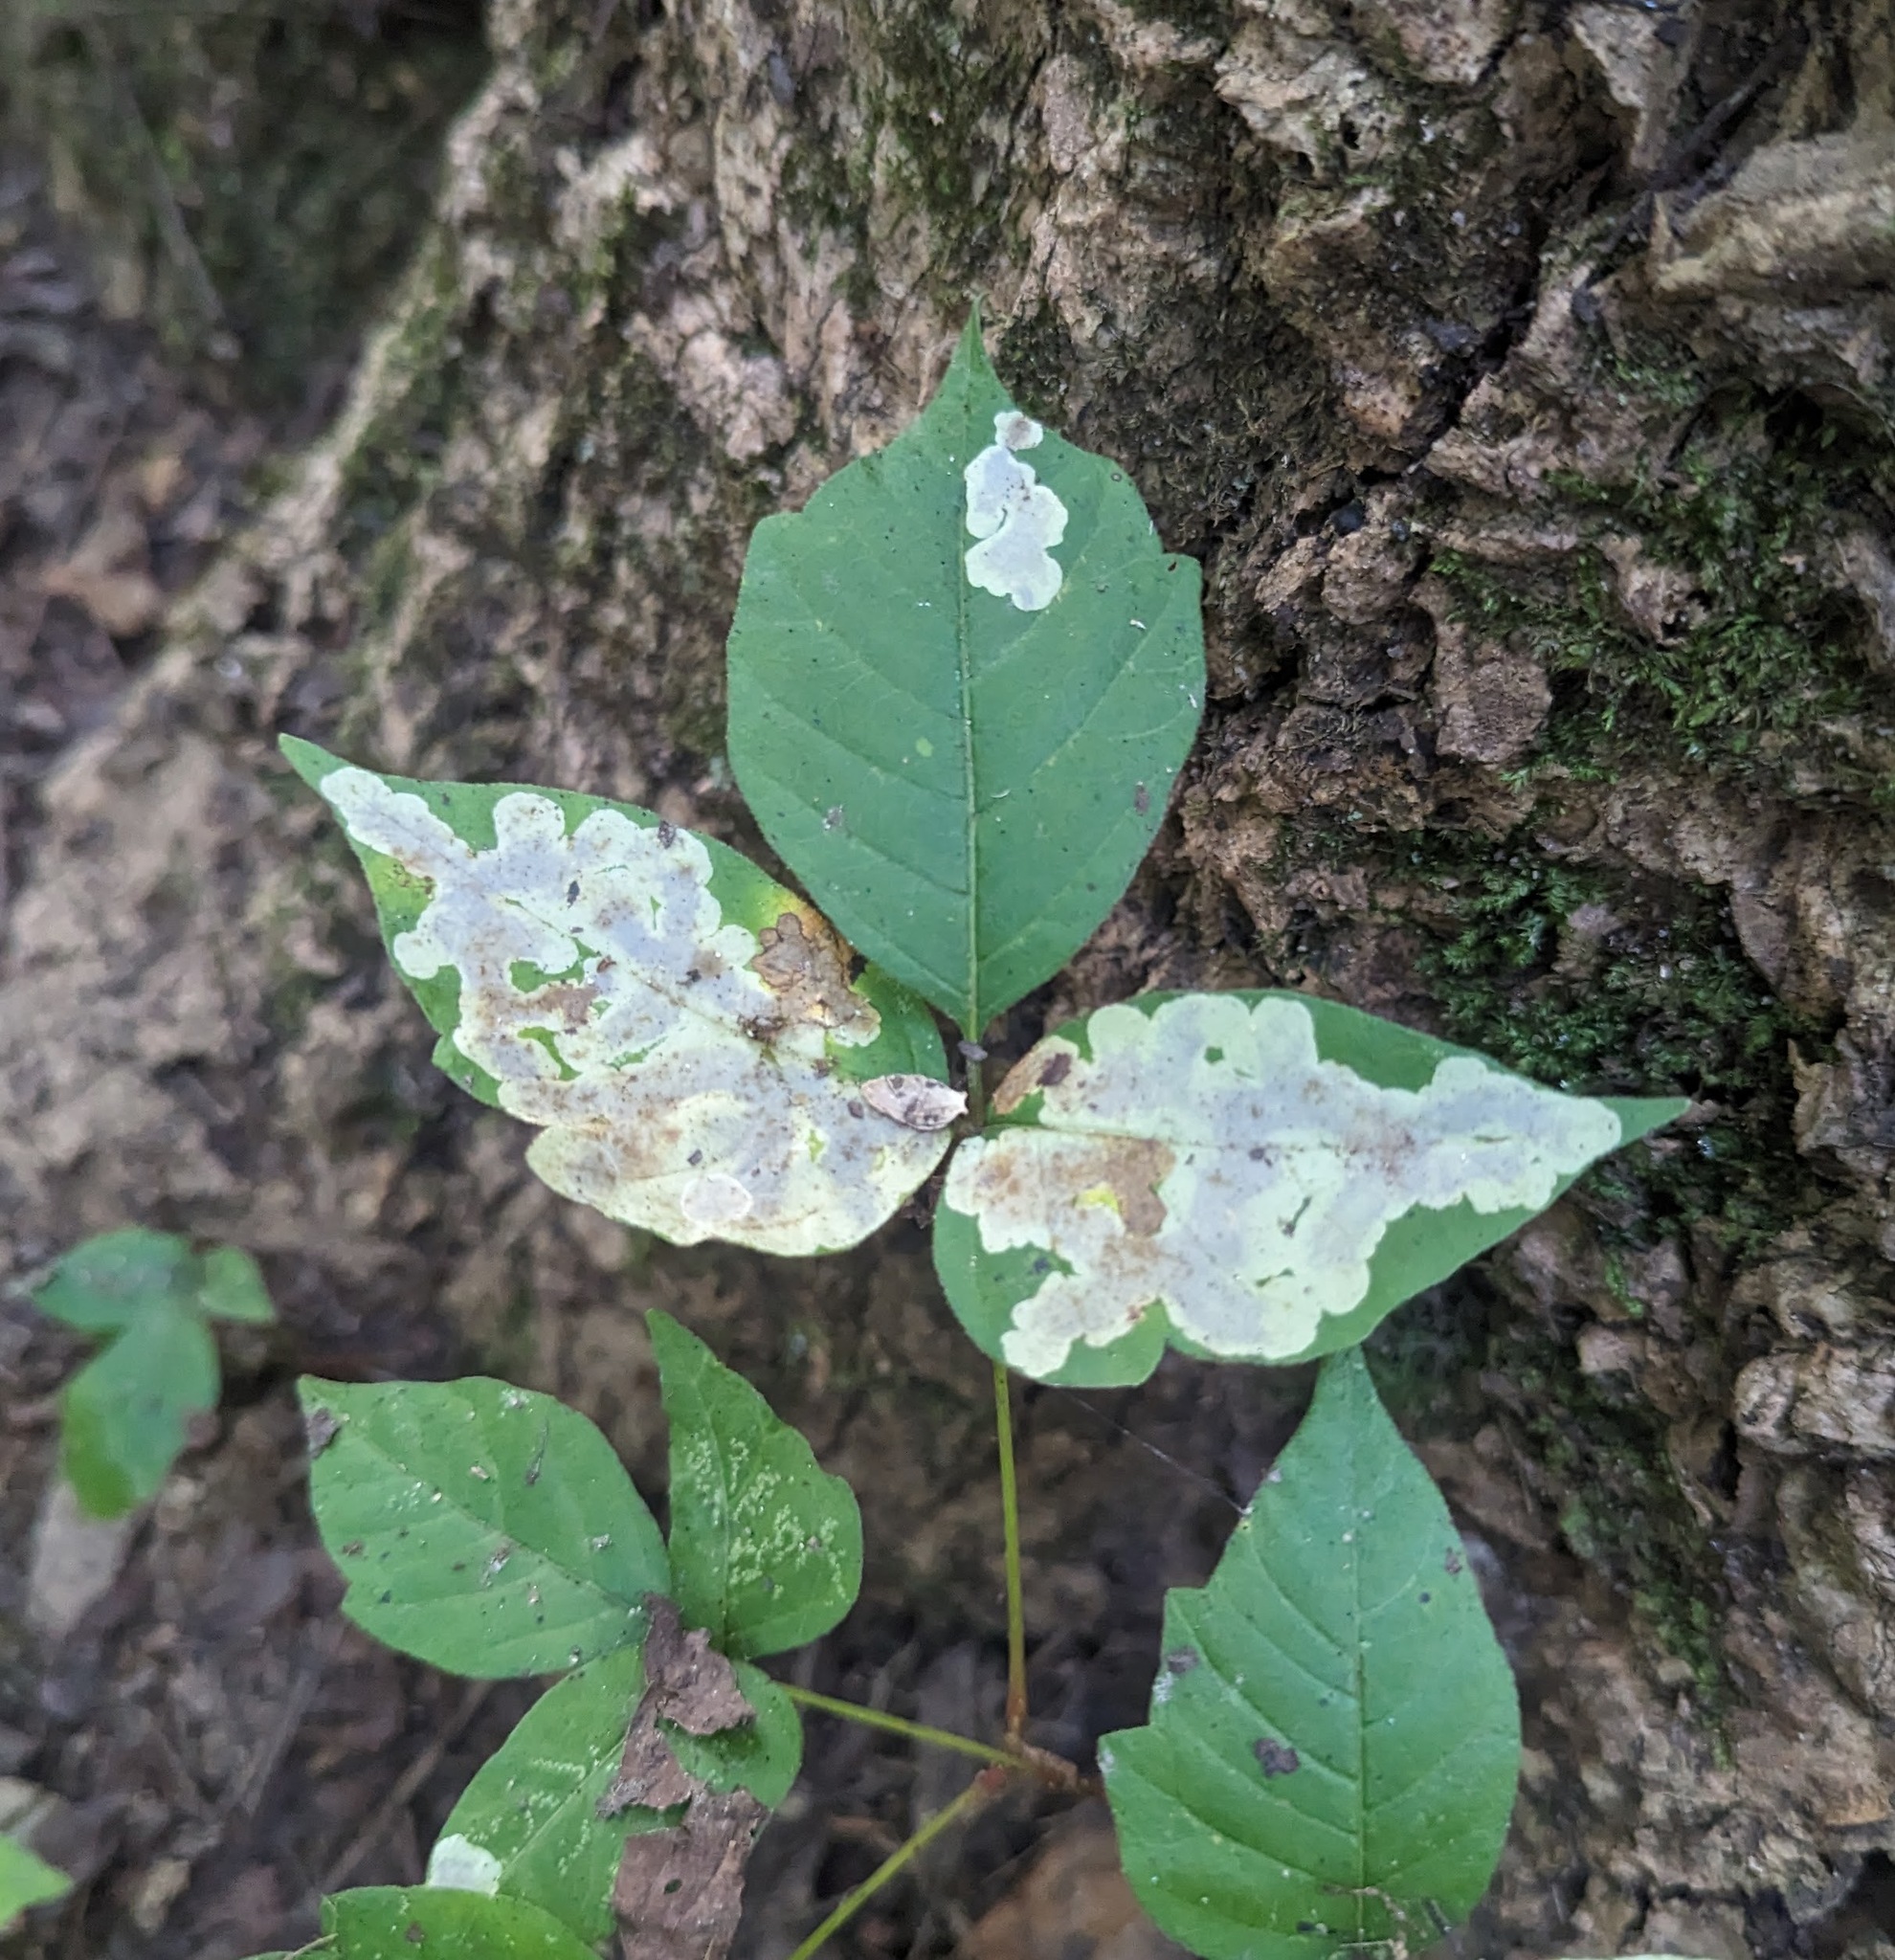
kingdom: Animalia
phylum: Arthropoda
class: Insecta
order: Lepidoptera
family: Gracillariidae
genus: Cameraria
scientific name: Cameraria guttifinitella
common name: Poison ivy leaf-miner moth
